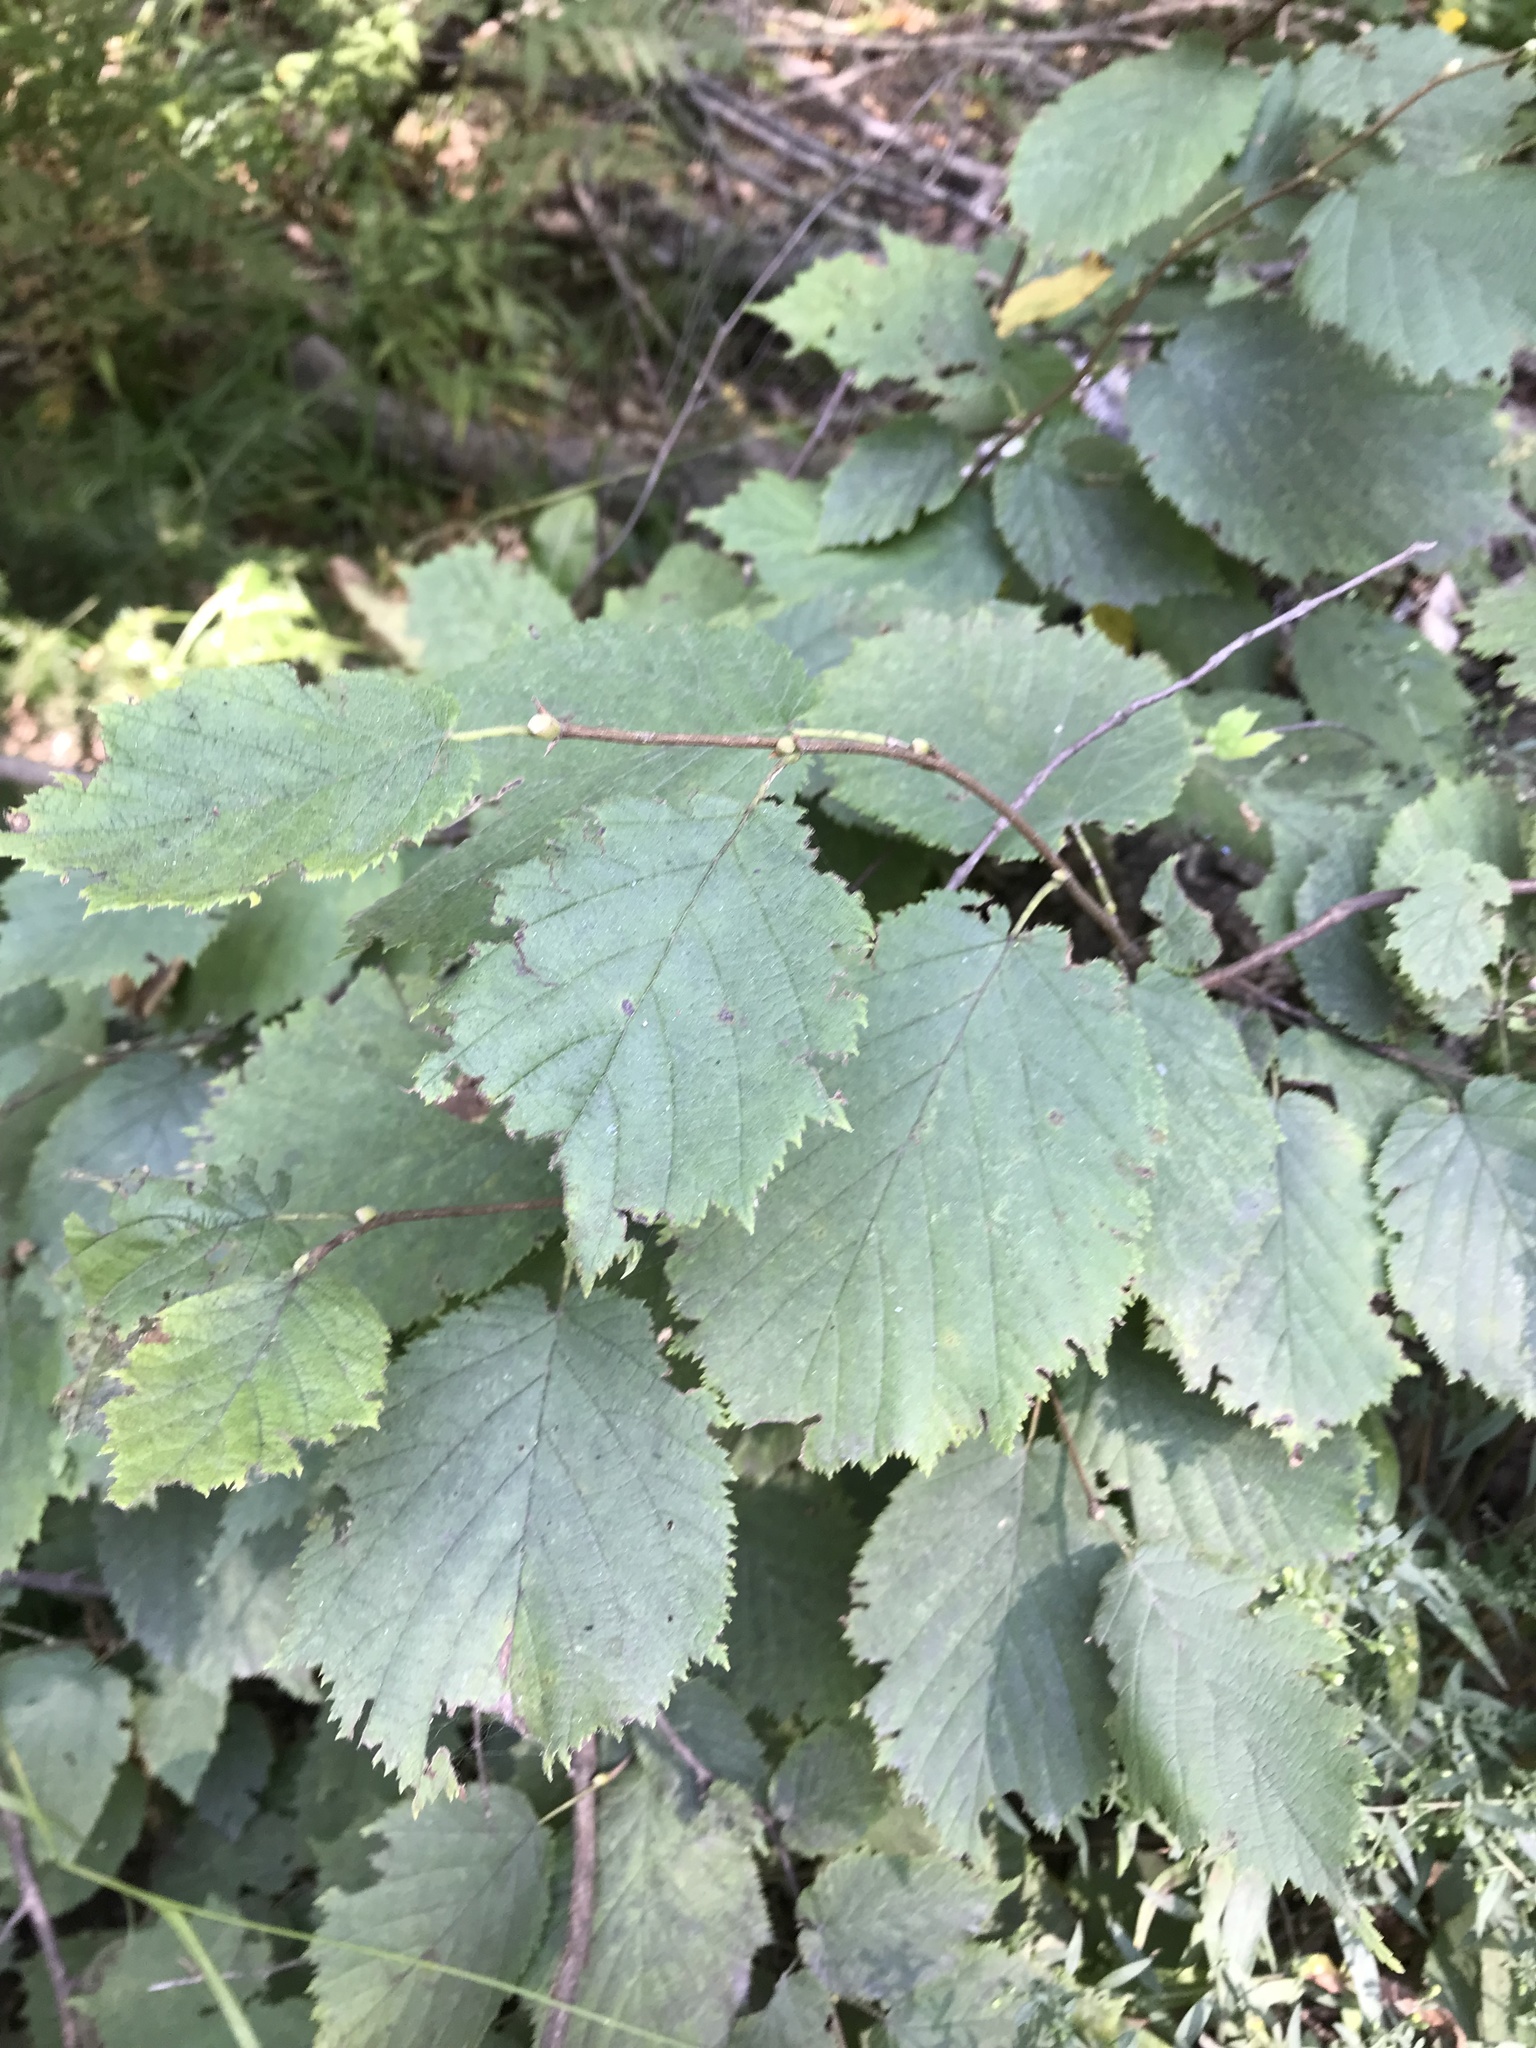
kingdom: Plantae
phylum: Tracheophyta
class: Magnoliopsida
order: Fagales
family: Betulaceae
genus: Corylus
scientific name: Corylus cornuta
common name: Beaked hazel
